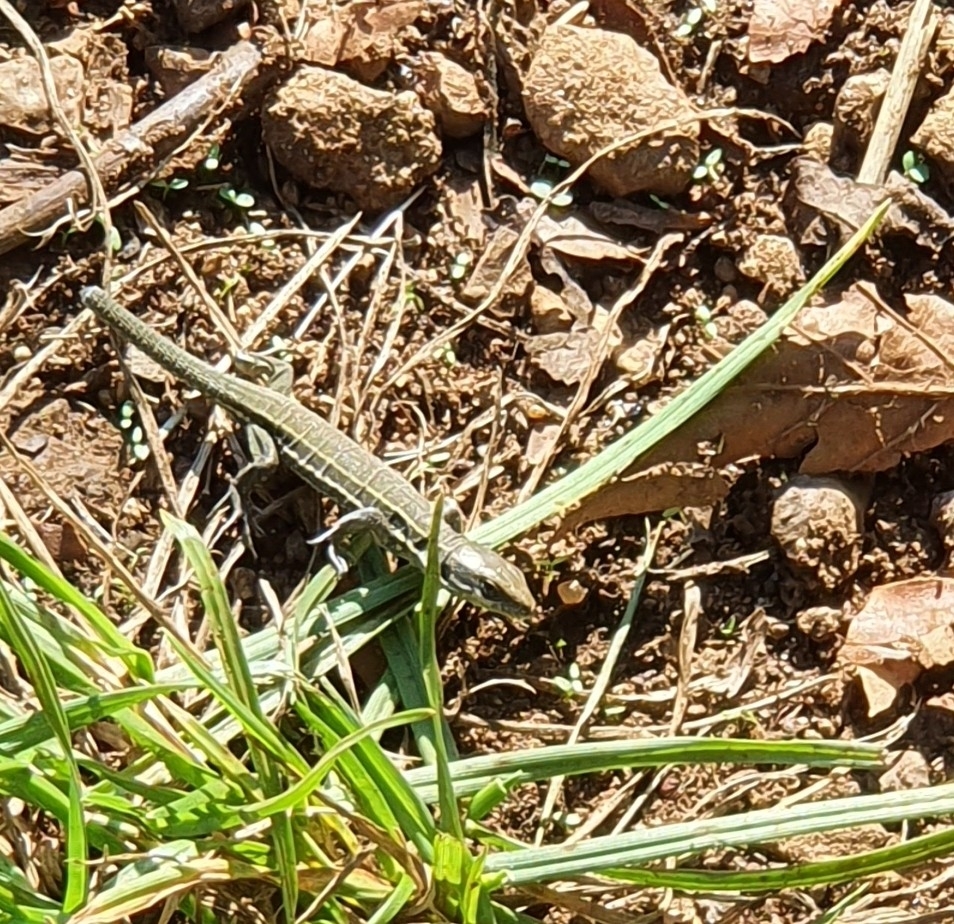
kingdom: Animalia
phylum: Chordata
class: Squamata
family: Lacertidae
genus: Podarcis
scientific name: Podarcis muralis
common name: Common wall lizard
